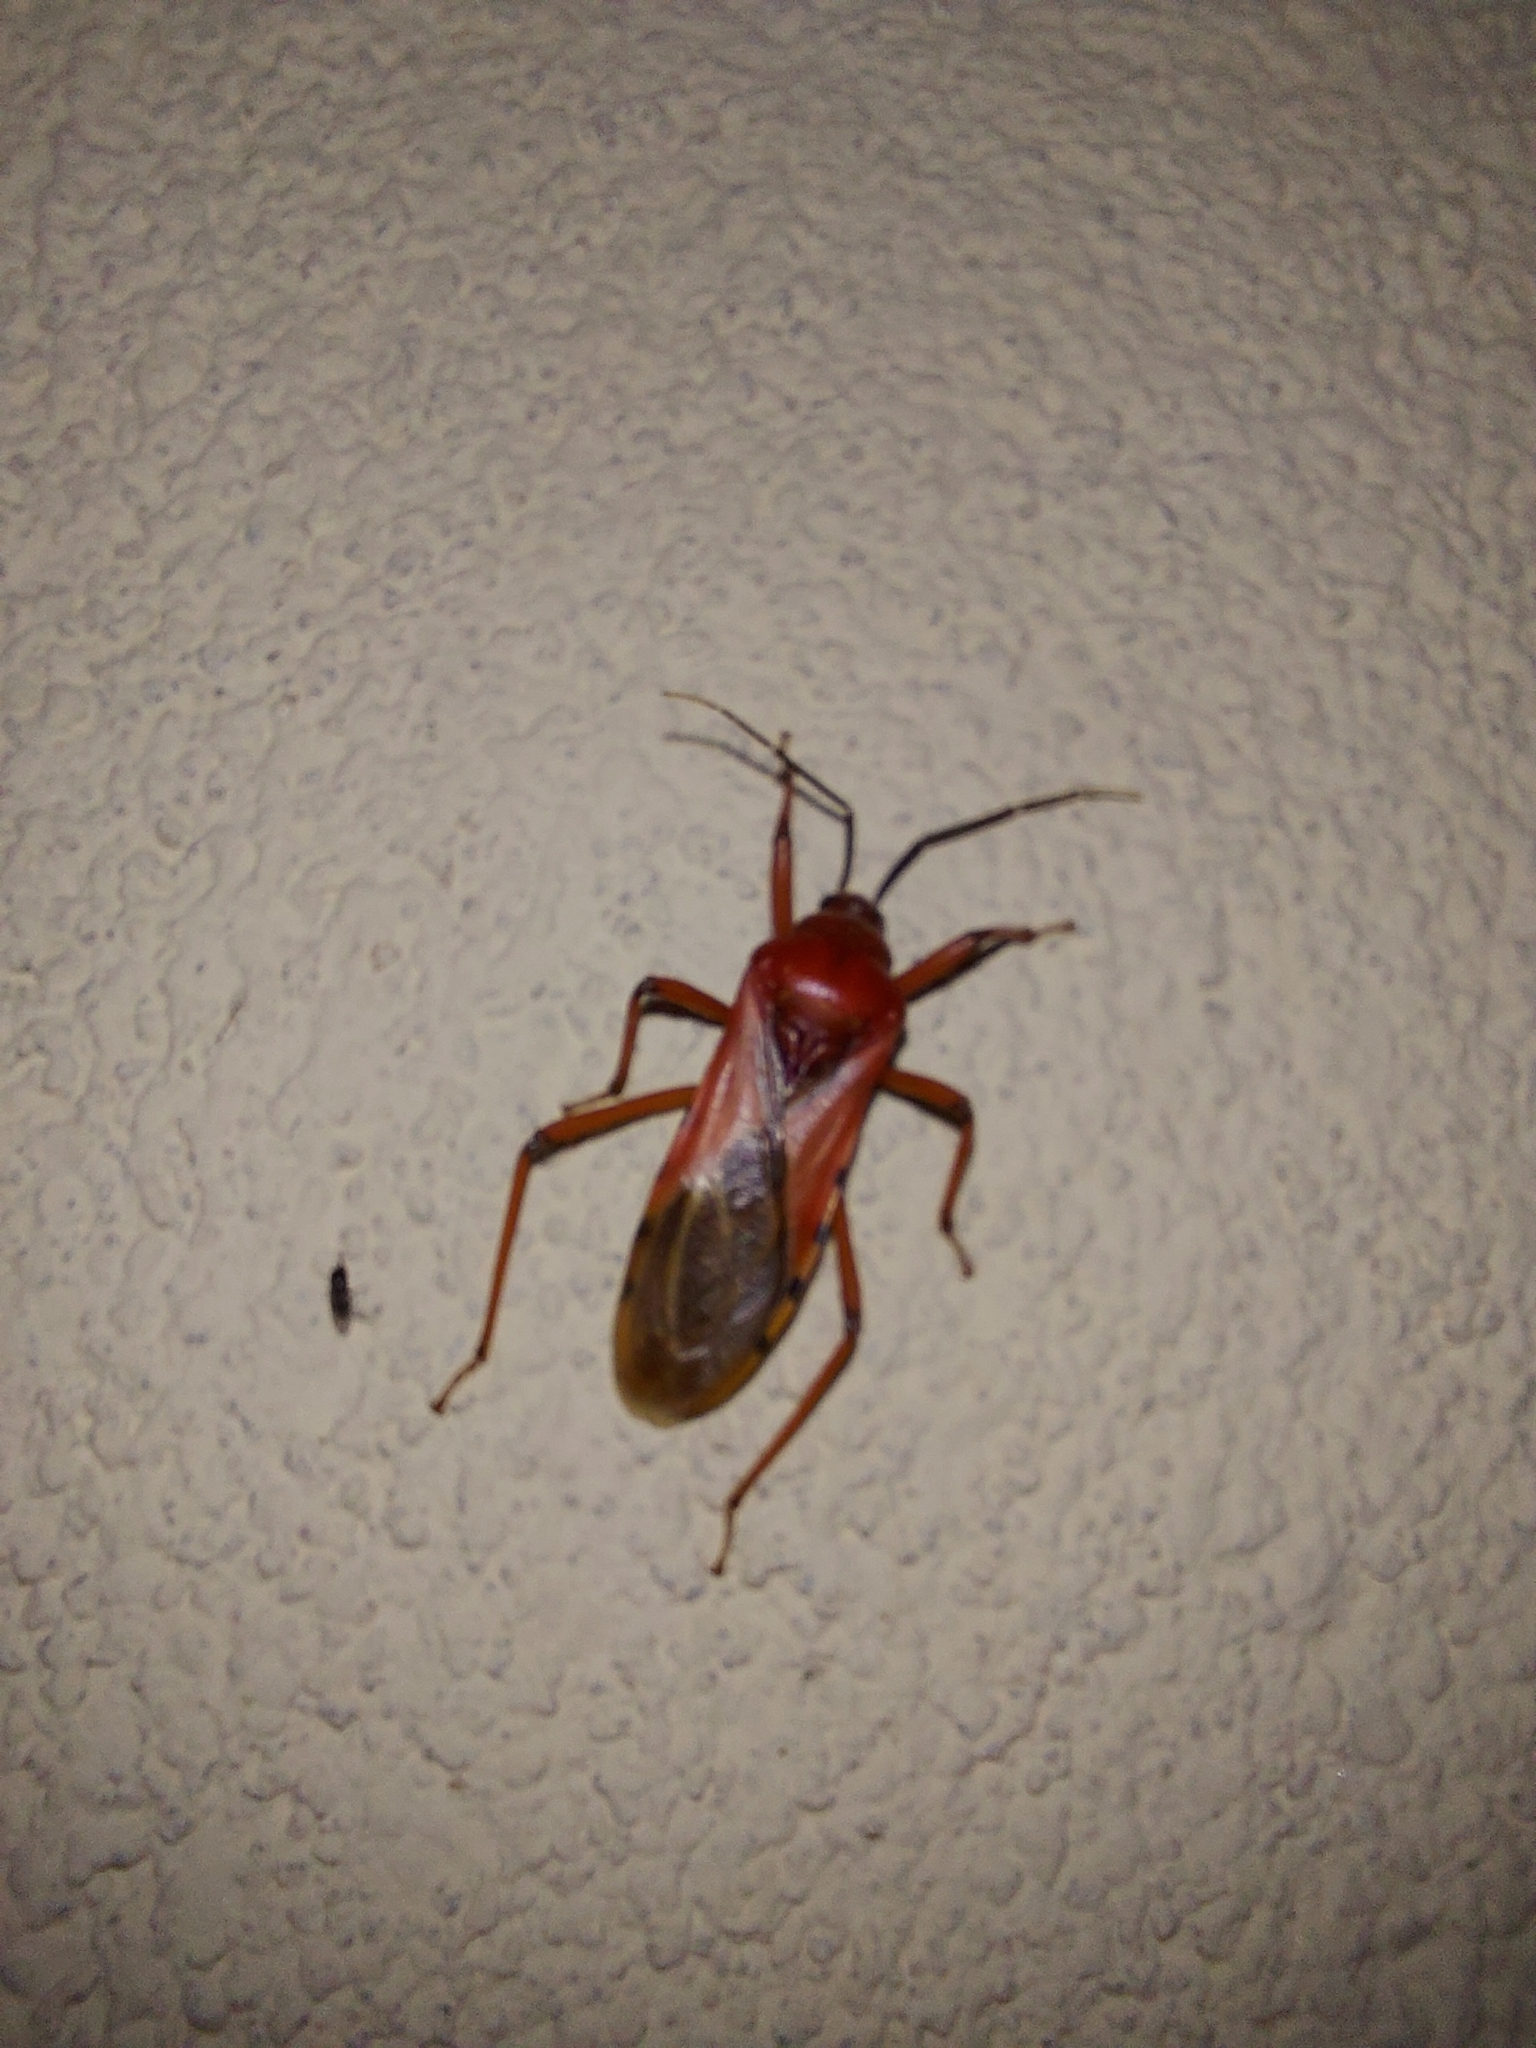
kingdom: Animalia
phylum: Arthropoda
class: Insecta
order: Hemiptera
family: Reduviidae
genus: Brontostoma
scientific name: Brontostoma rubrum
